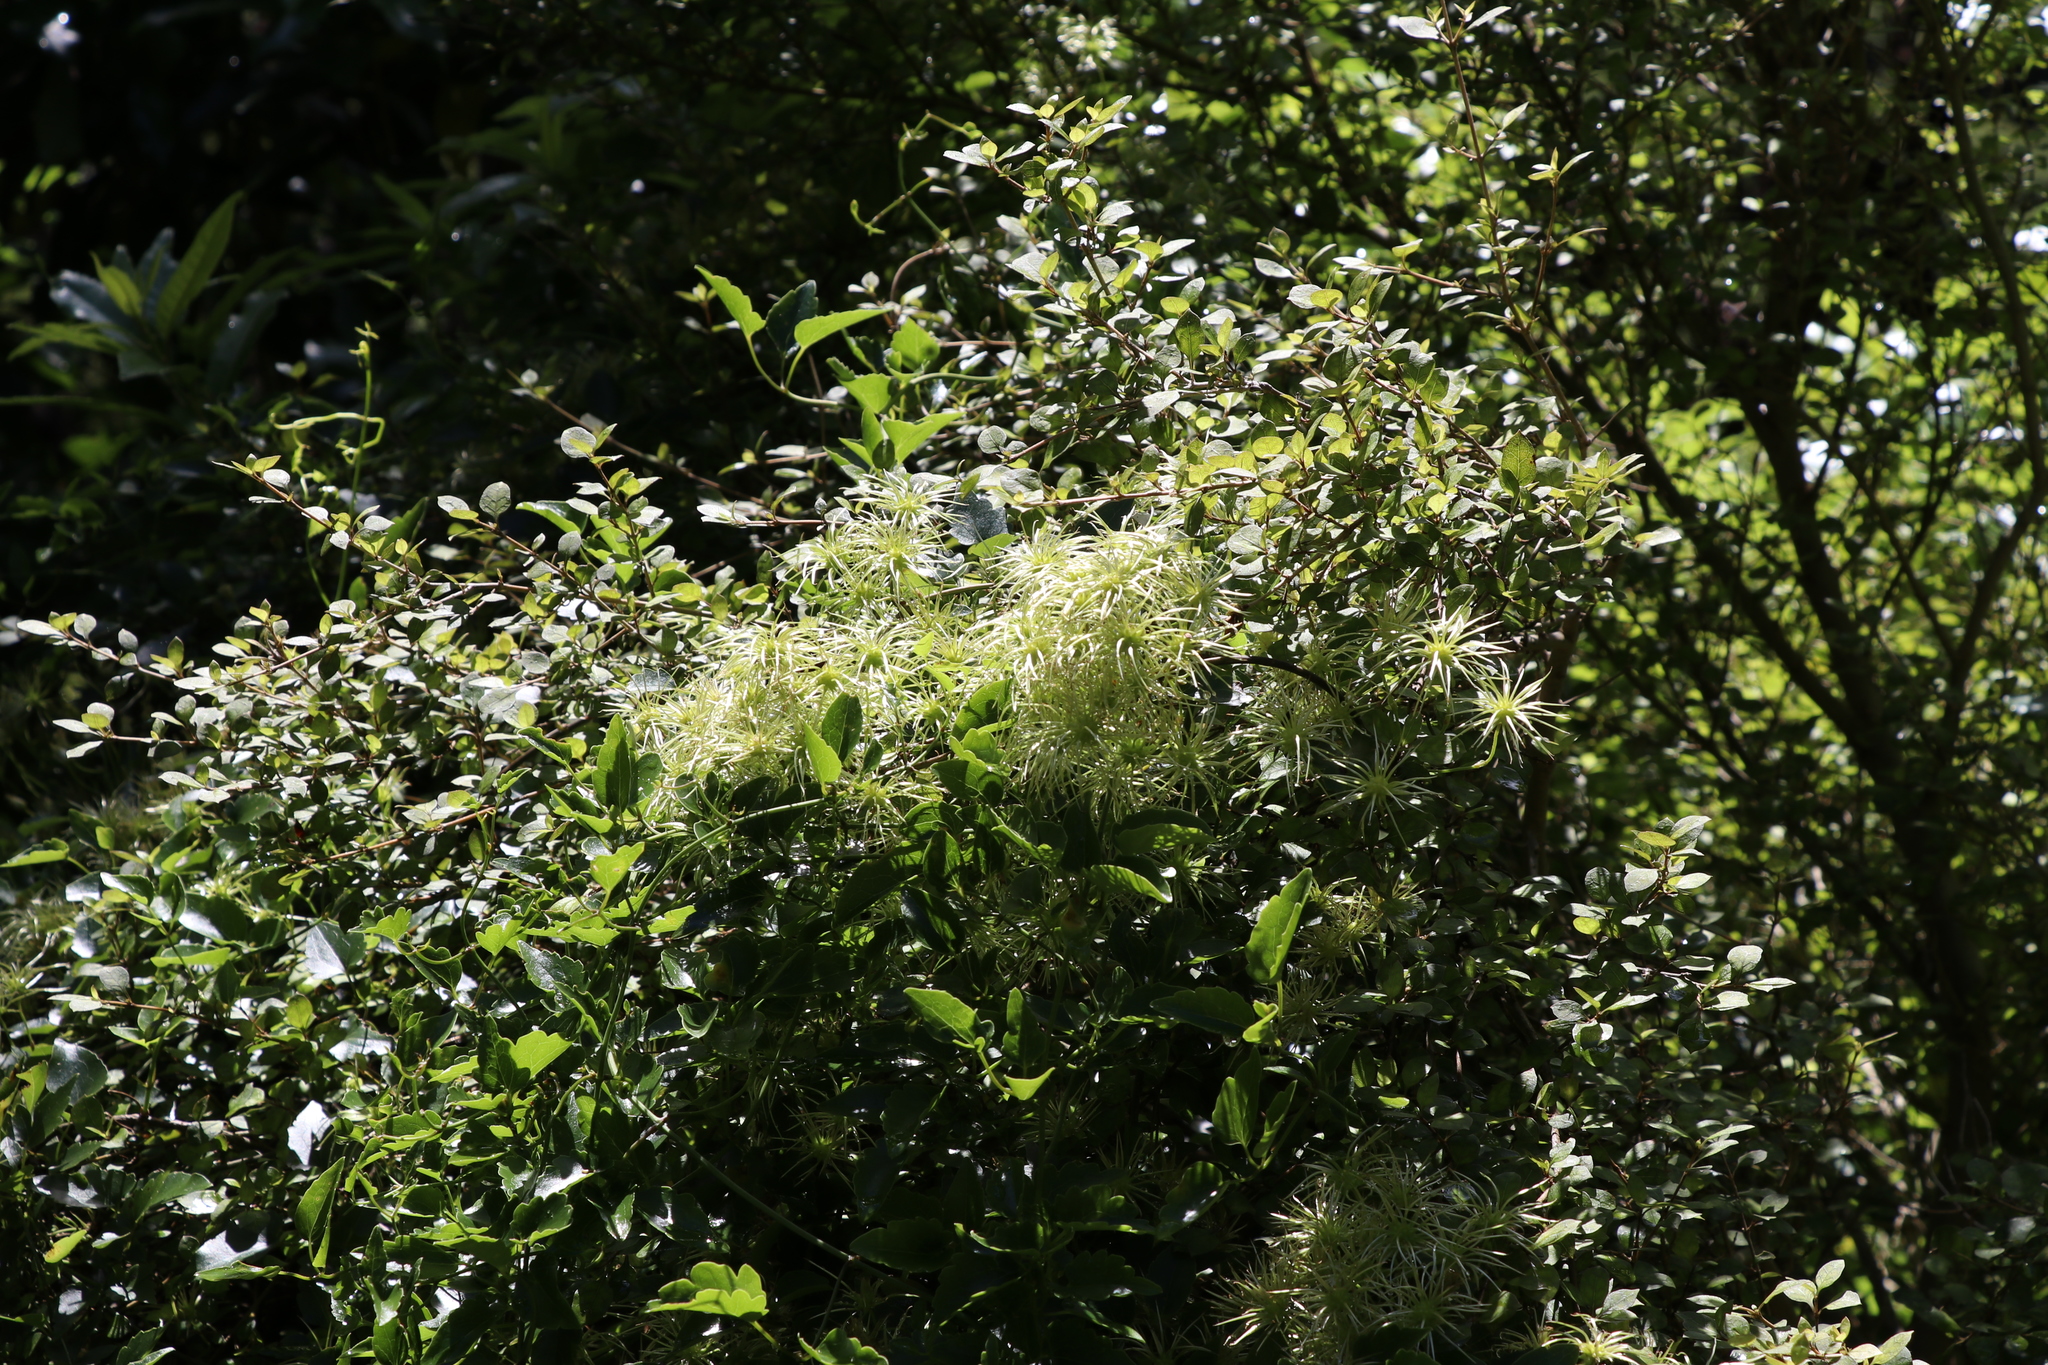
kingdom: Plantae
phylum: Tracheophyta
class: Magnoliopsida
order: Ranunculales
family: Ranunculaceae
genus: Clematis
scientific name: Clematis forsteri
